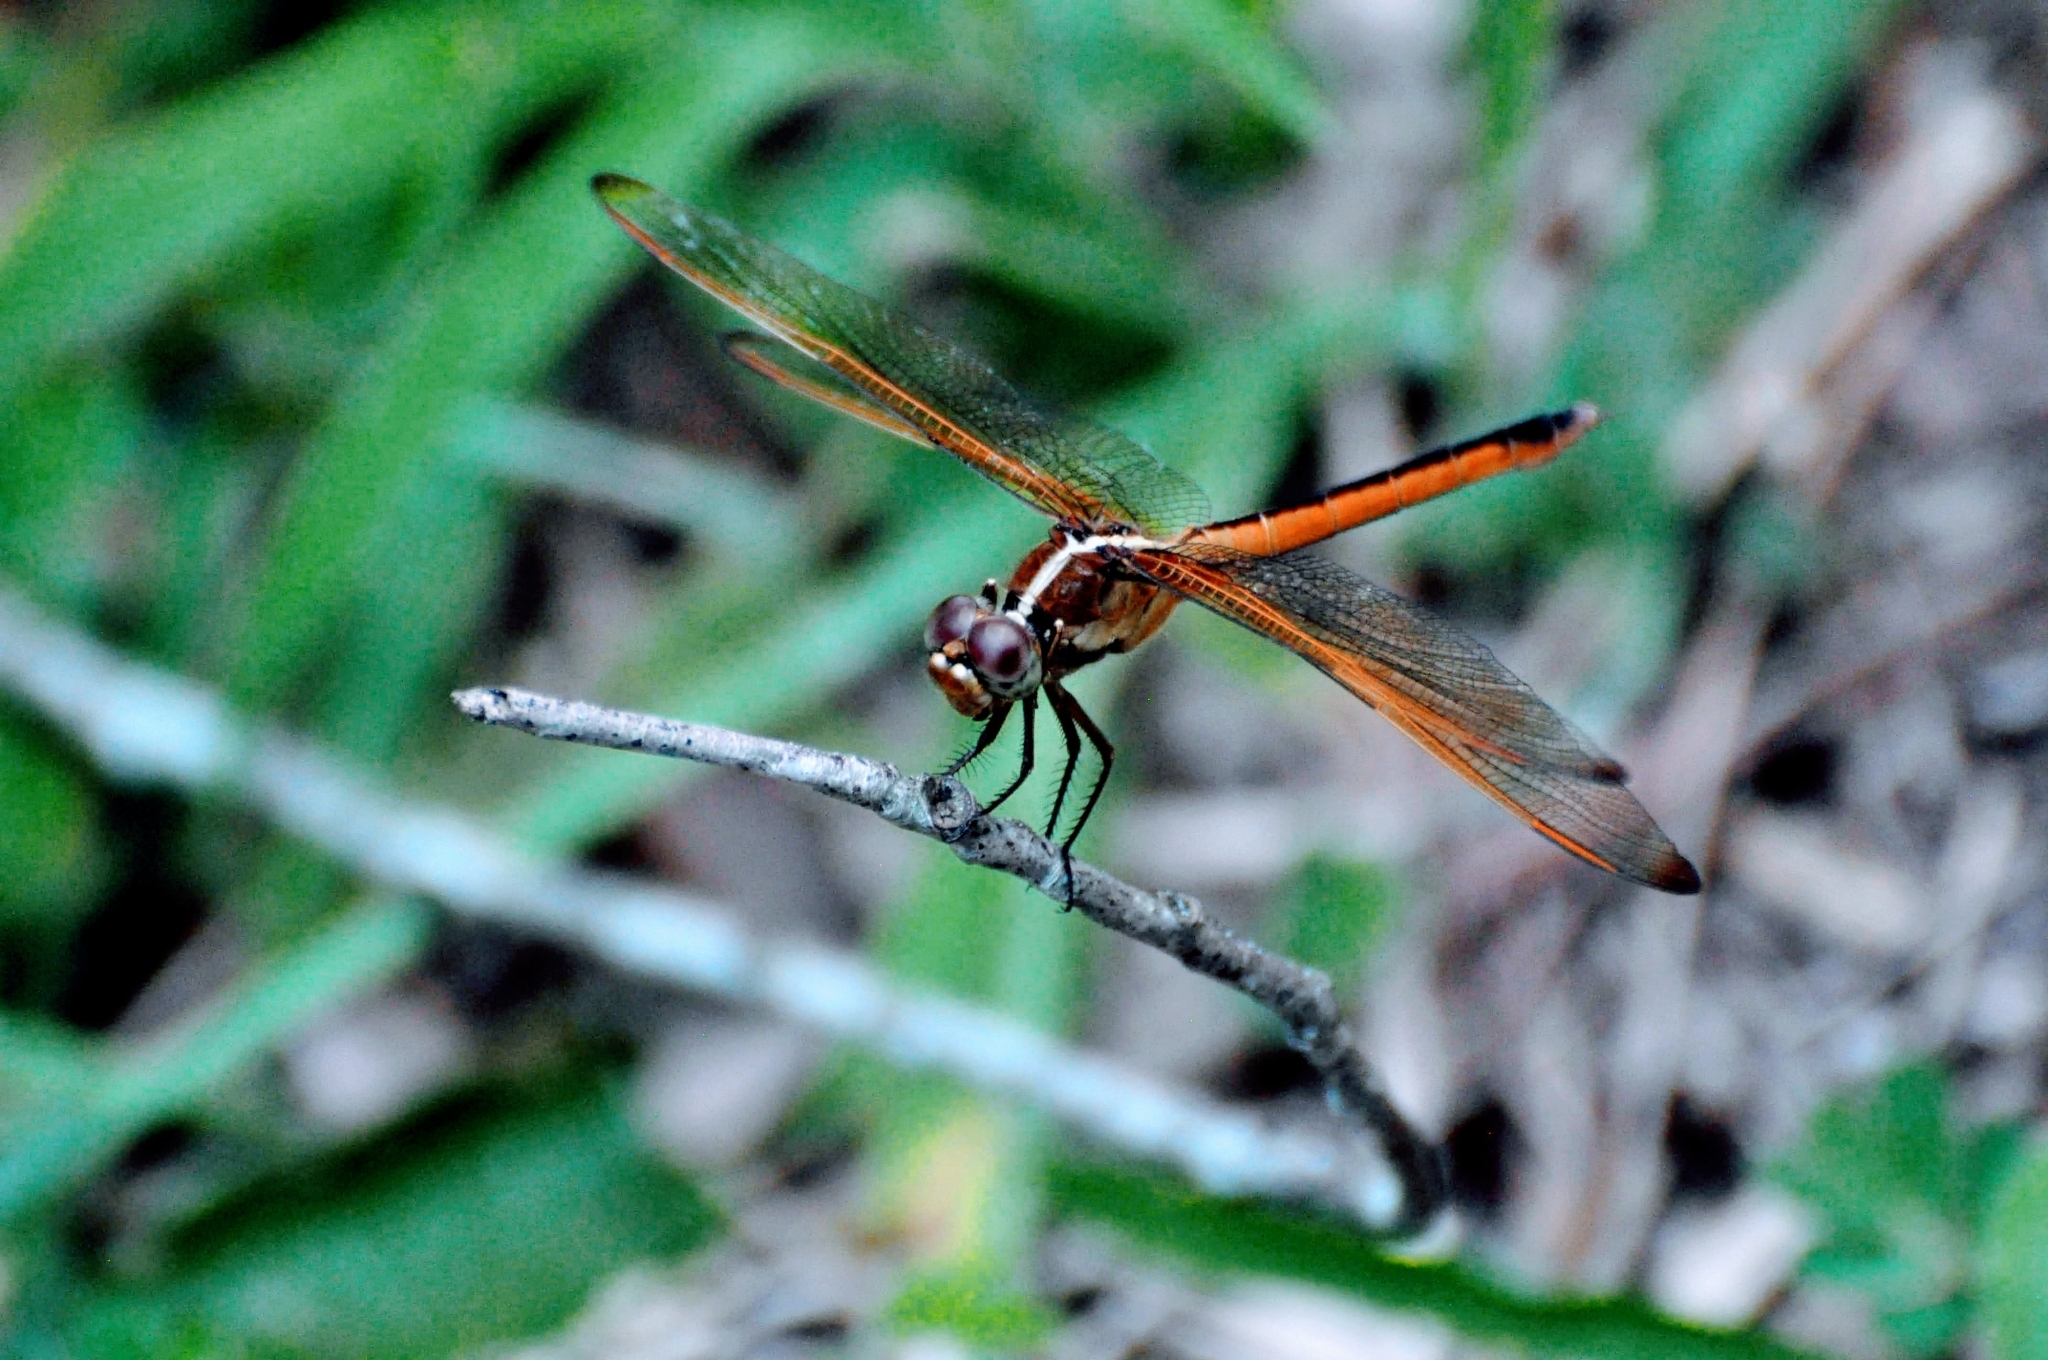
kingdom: Animalia
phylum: Arthropoda
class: Insecta
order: Odonata
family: Libellulidae
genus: Libellula
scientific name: Libellula needhami
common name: Needham's skimmer
